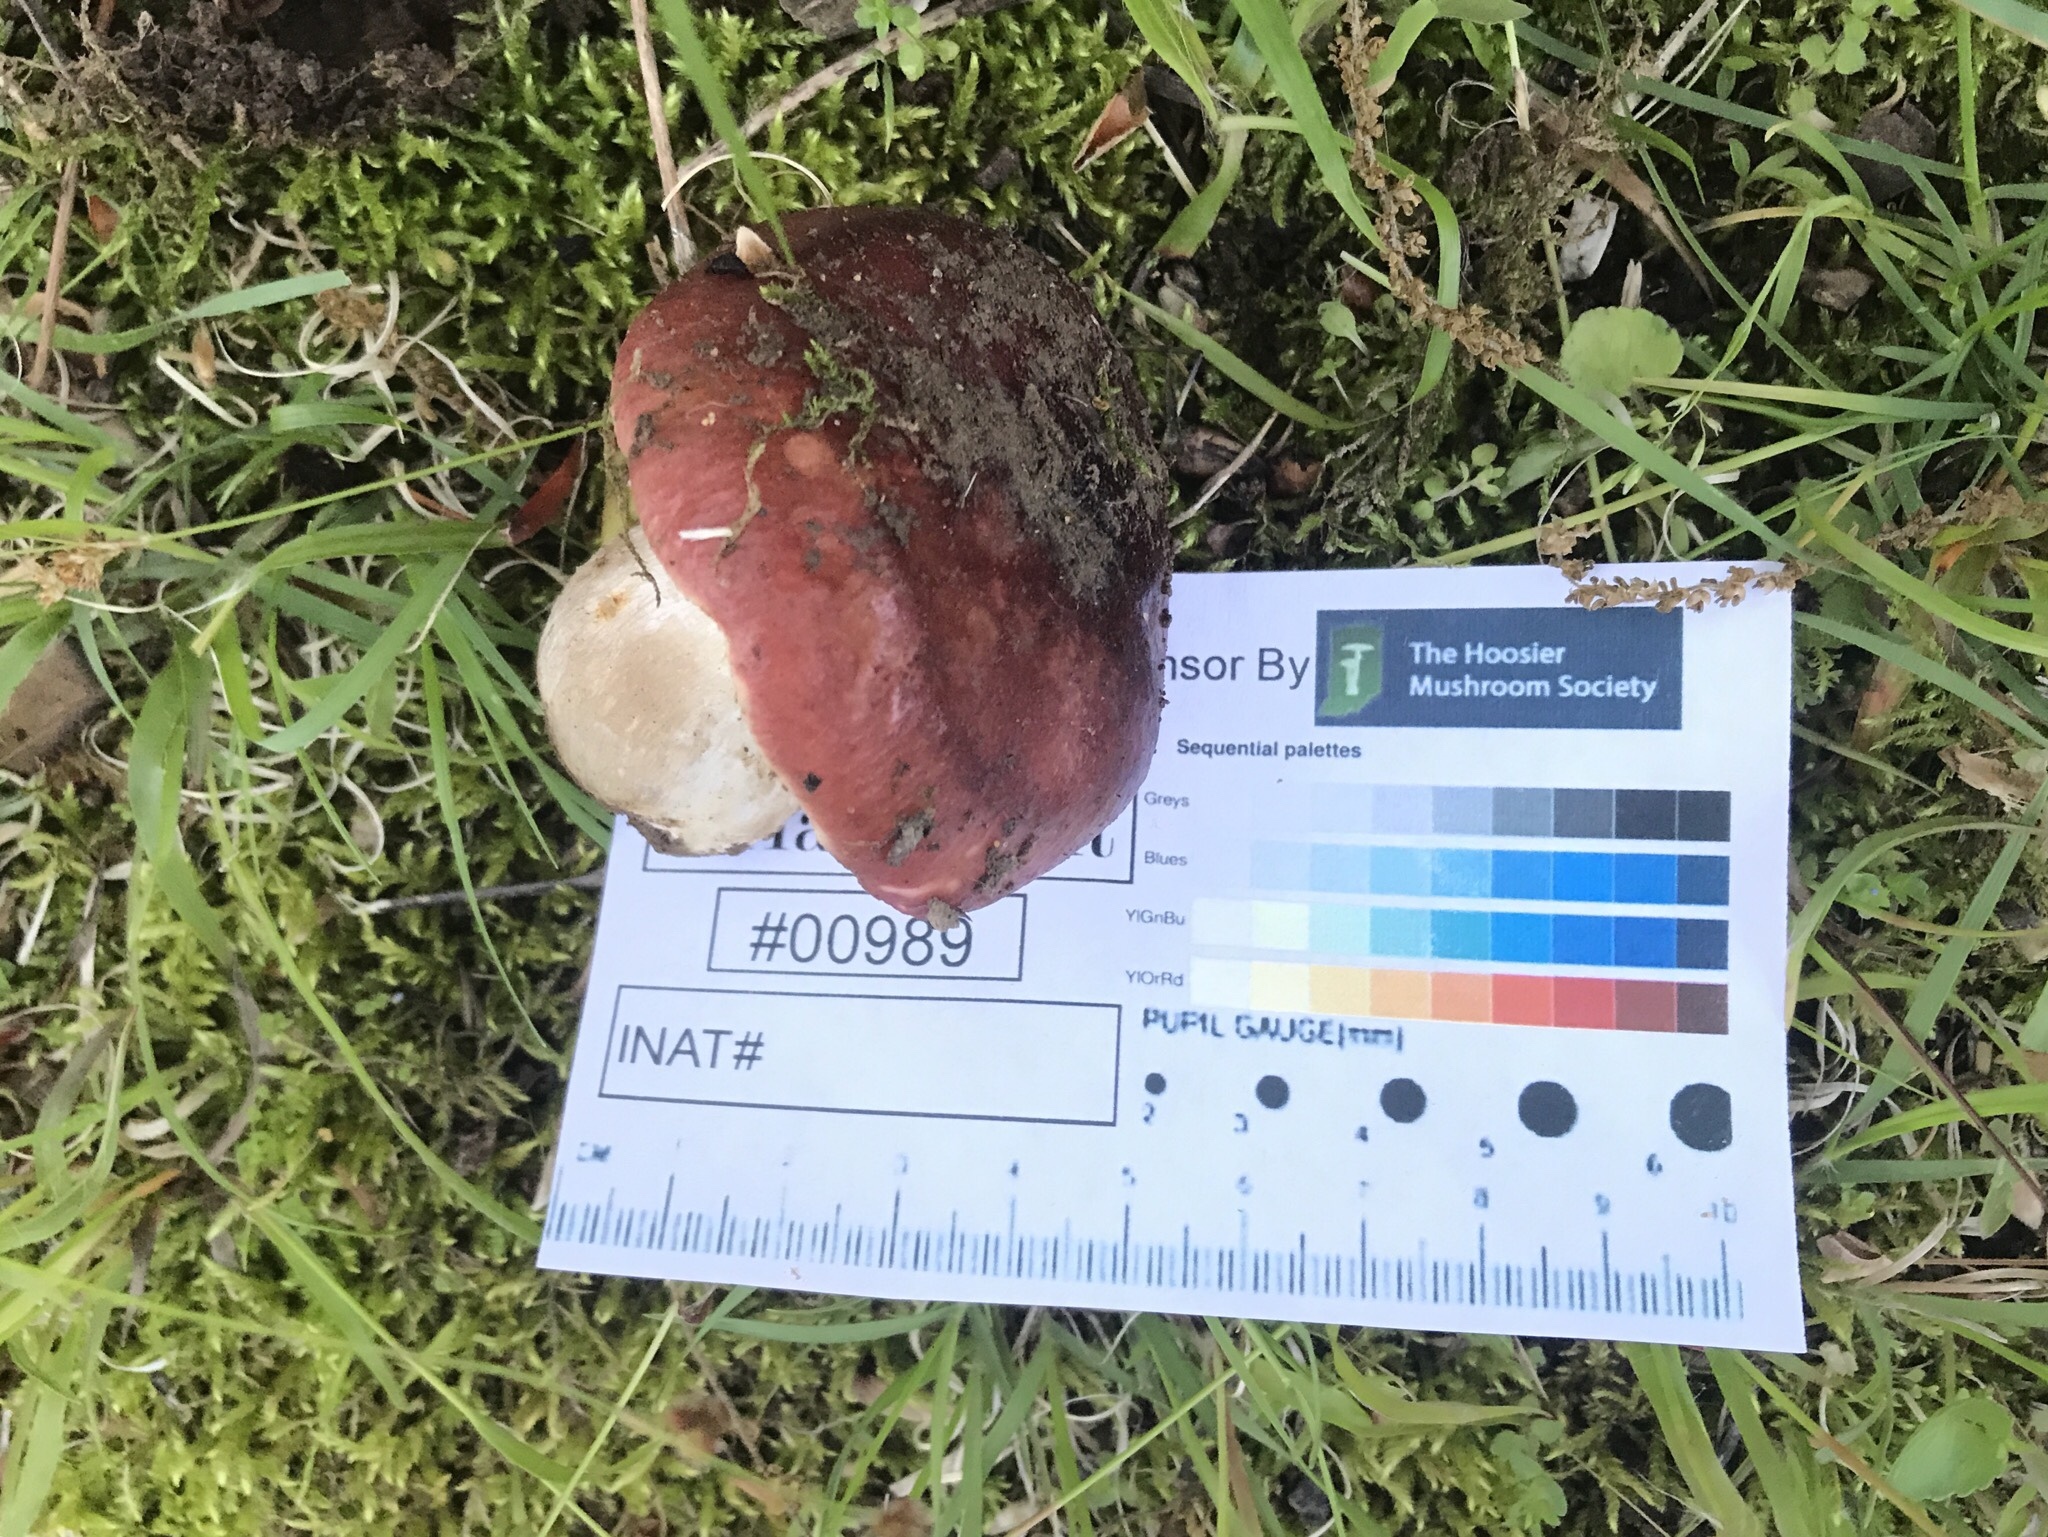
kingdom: Fungi
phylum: Basidiomycota
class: Agaricomycetes
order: Russulales
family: Russulaceae
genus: Russula
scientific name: Russula vinacea
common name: Blackish-red russula
